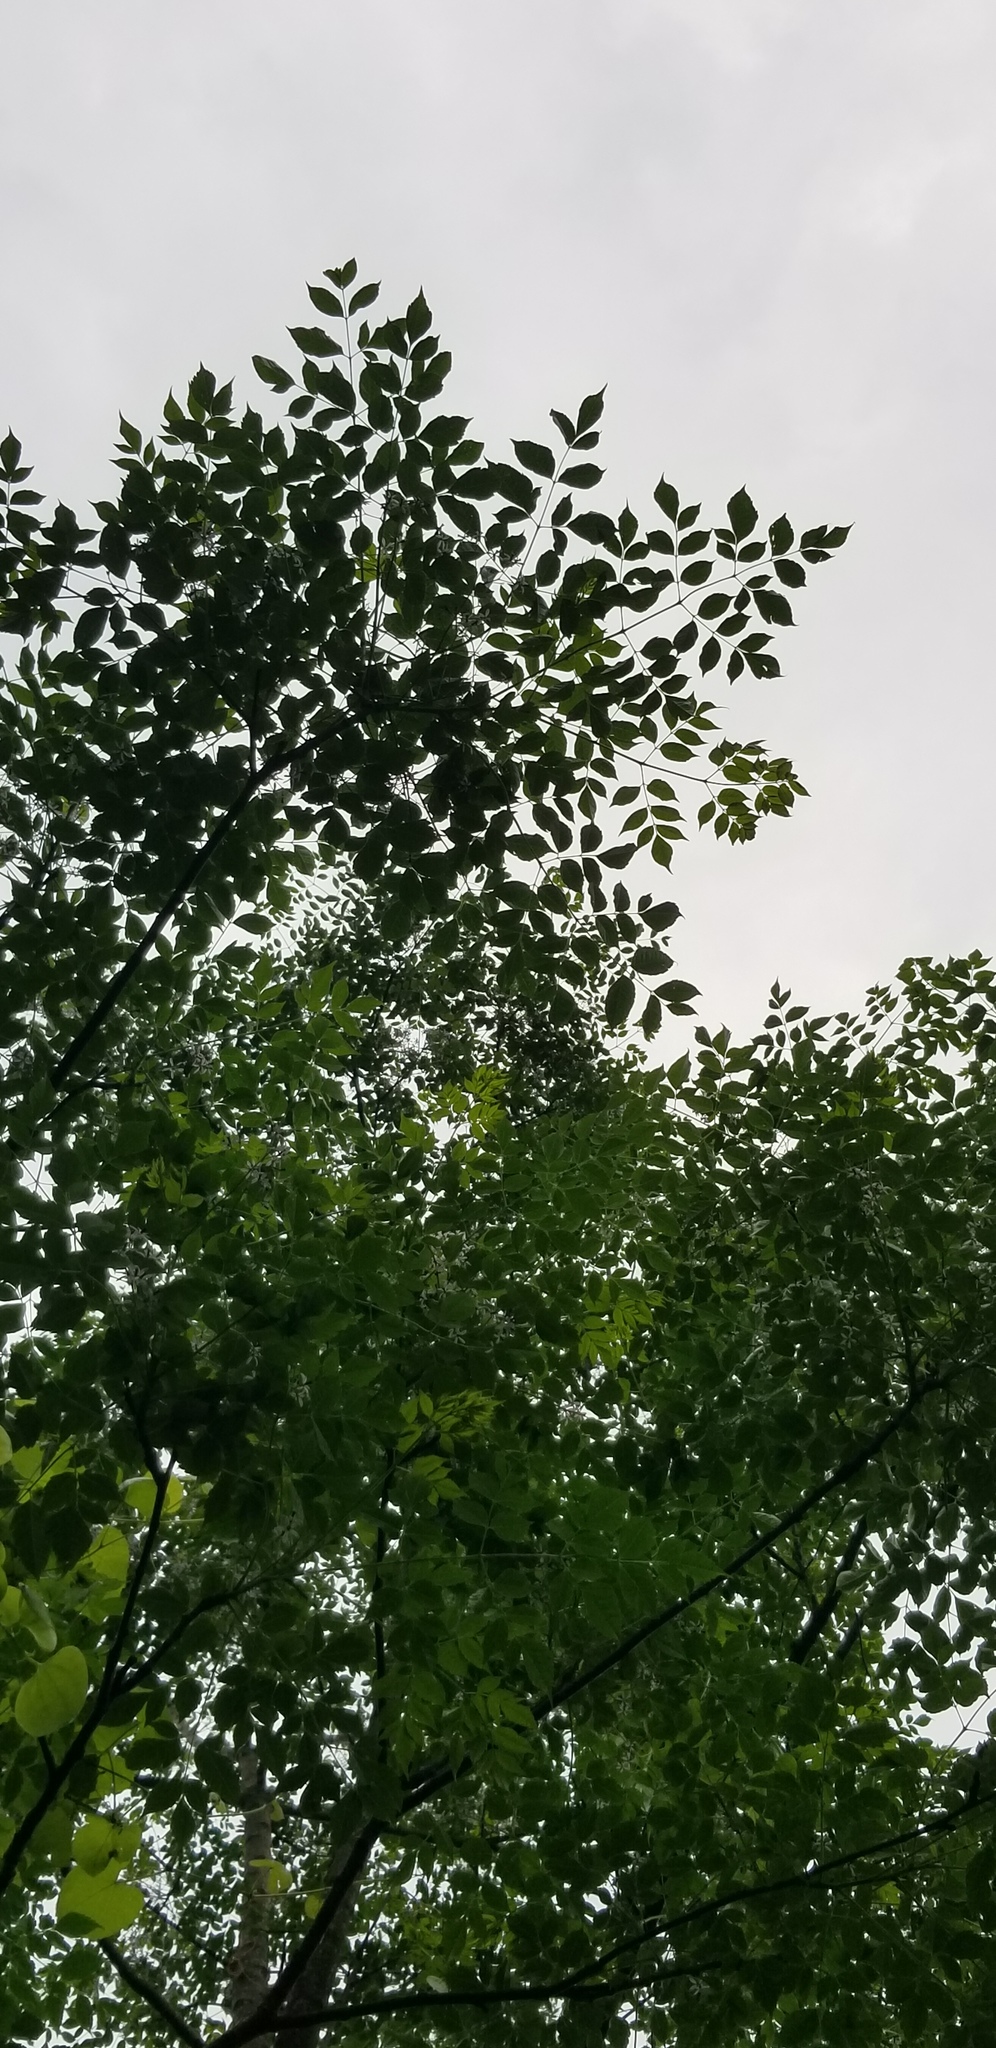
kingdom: Plantae
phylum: Tracheophyta
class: Magnoliopsida
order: Sapindales
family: Meliaceae
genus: Melia
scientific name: Melia azedarach
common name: Chinaberrytree
